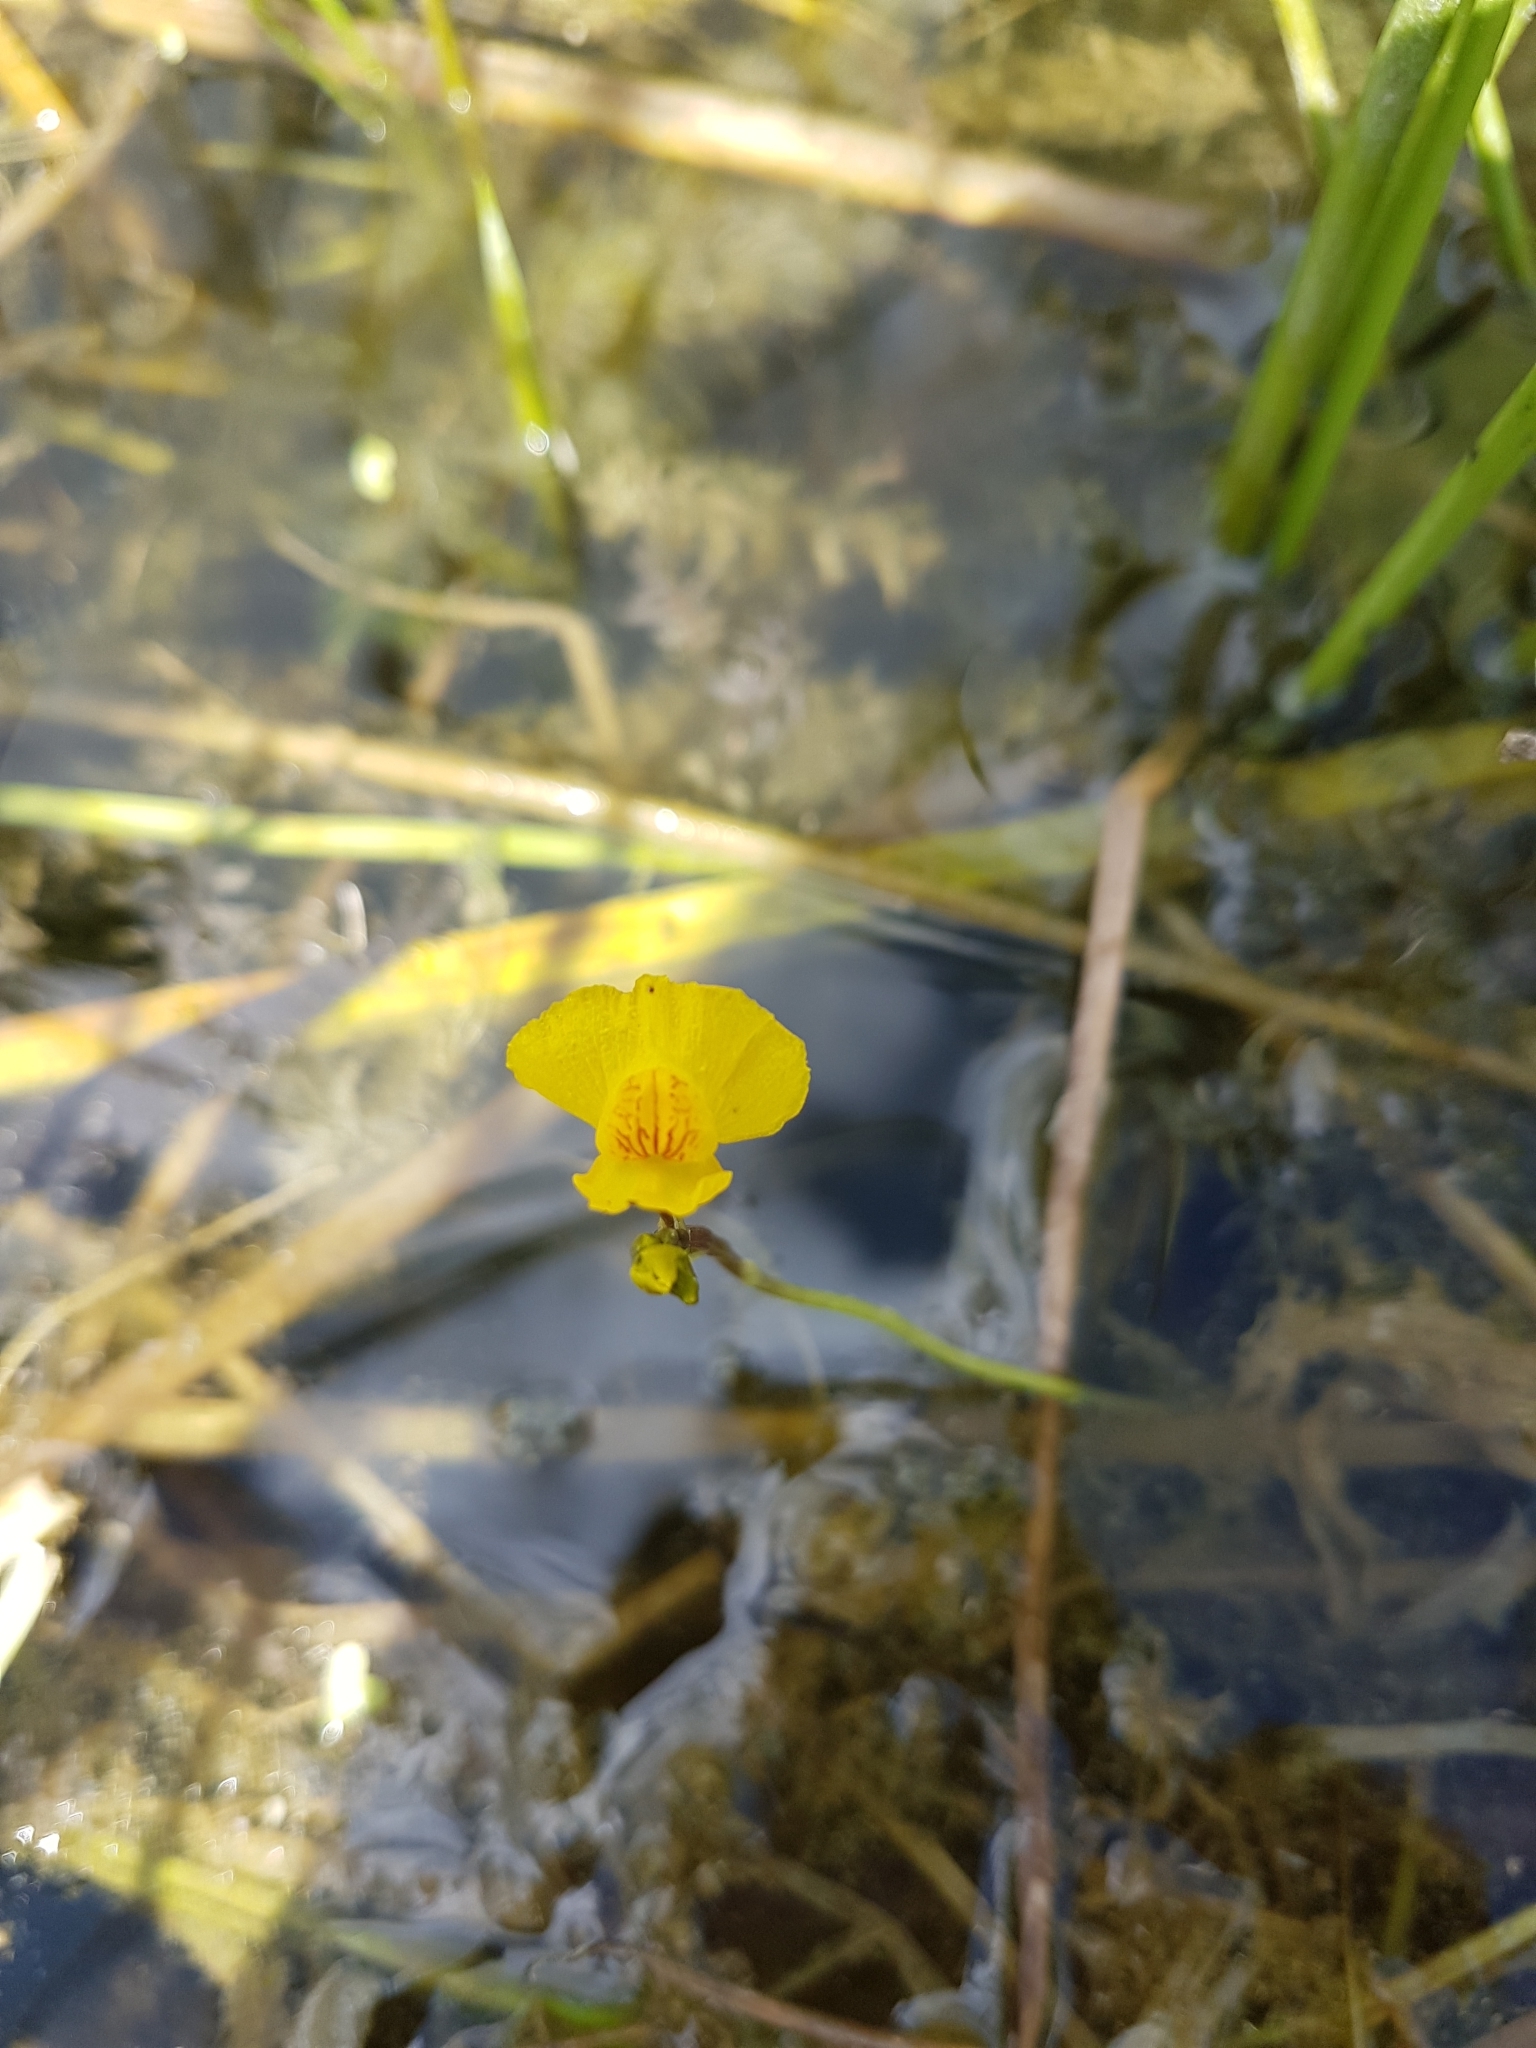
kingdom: Plantae
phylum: Tracheophyta
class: Magnoliopsida
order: Lamiales
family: Lentibulariaceae
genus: Utricularia
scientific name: Utricularia macrorhiza
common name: Common bladderwort
